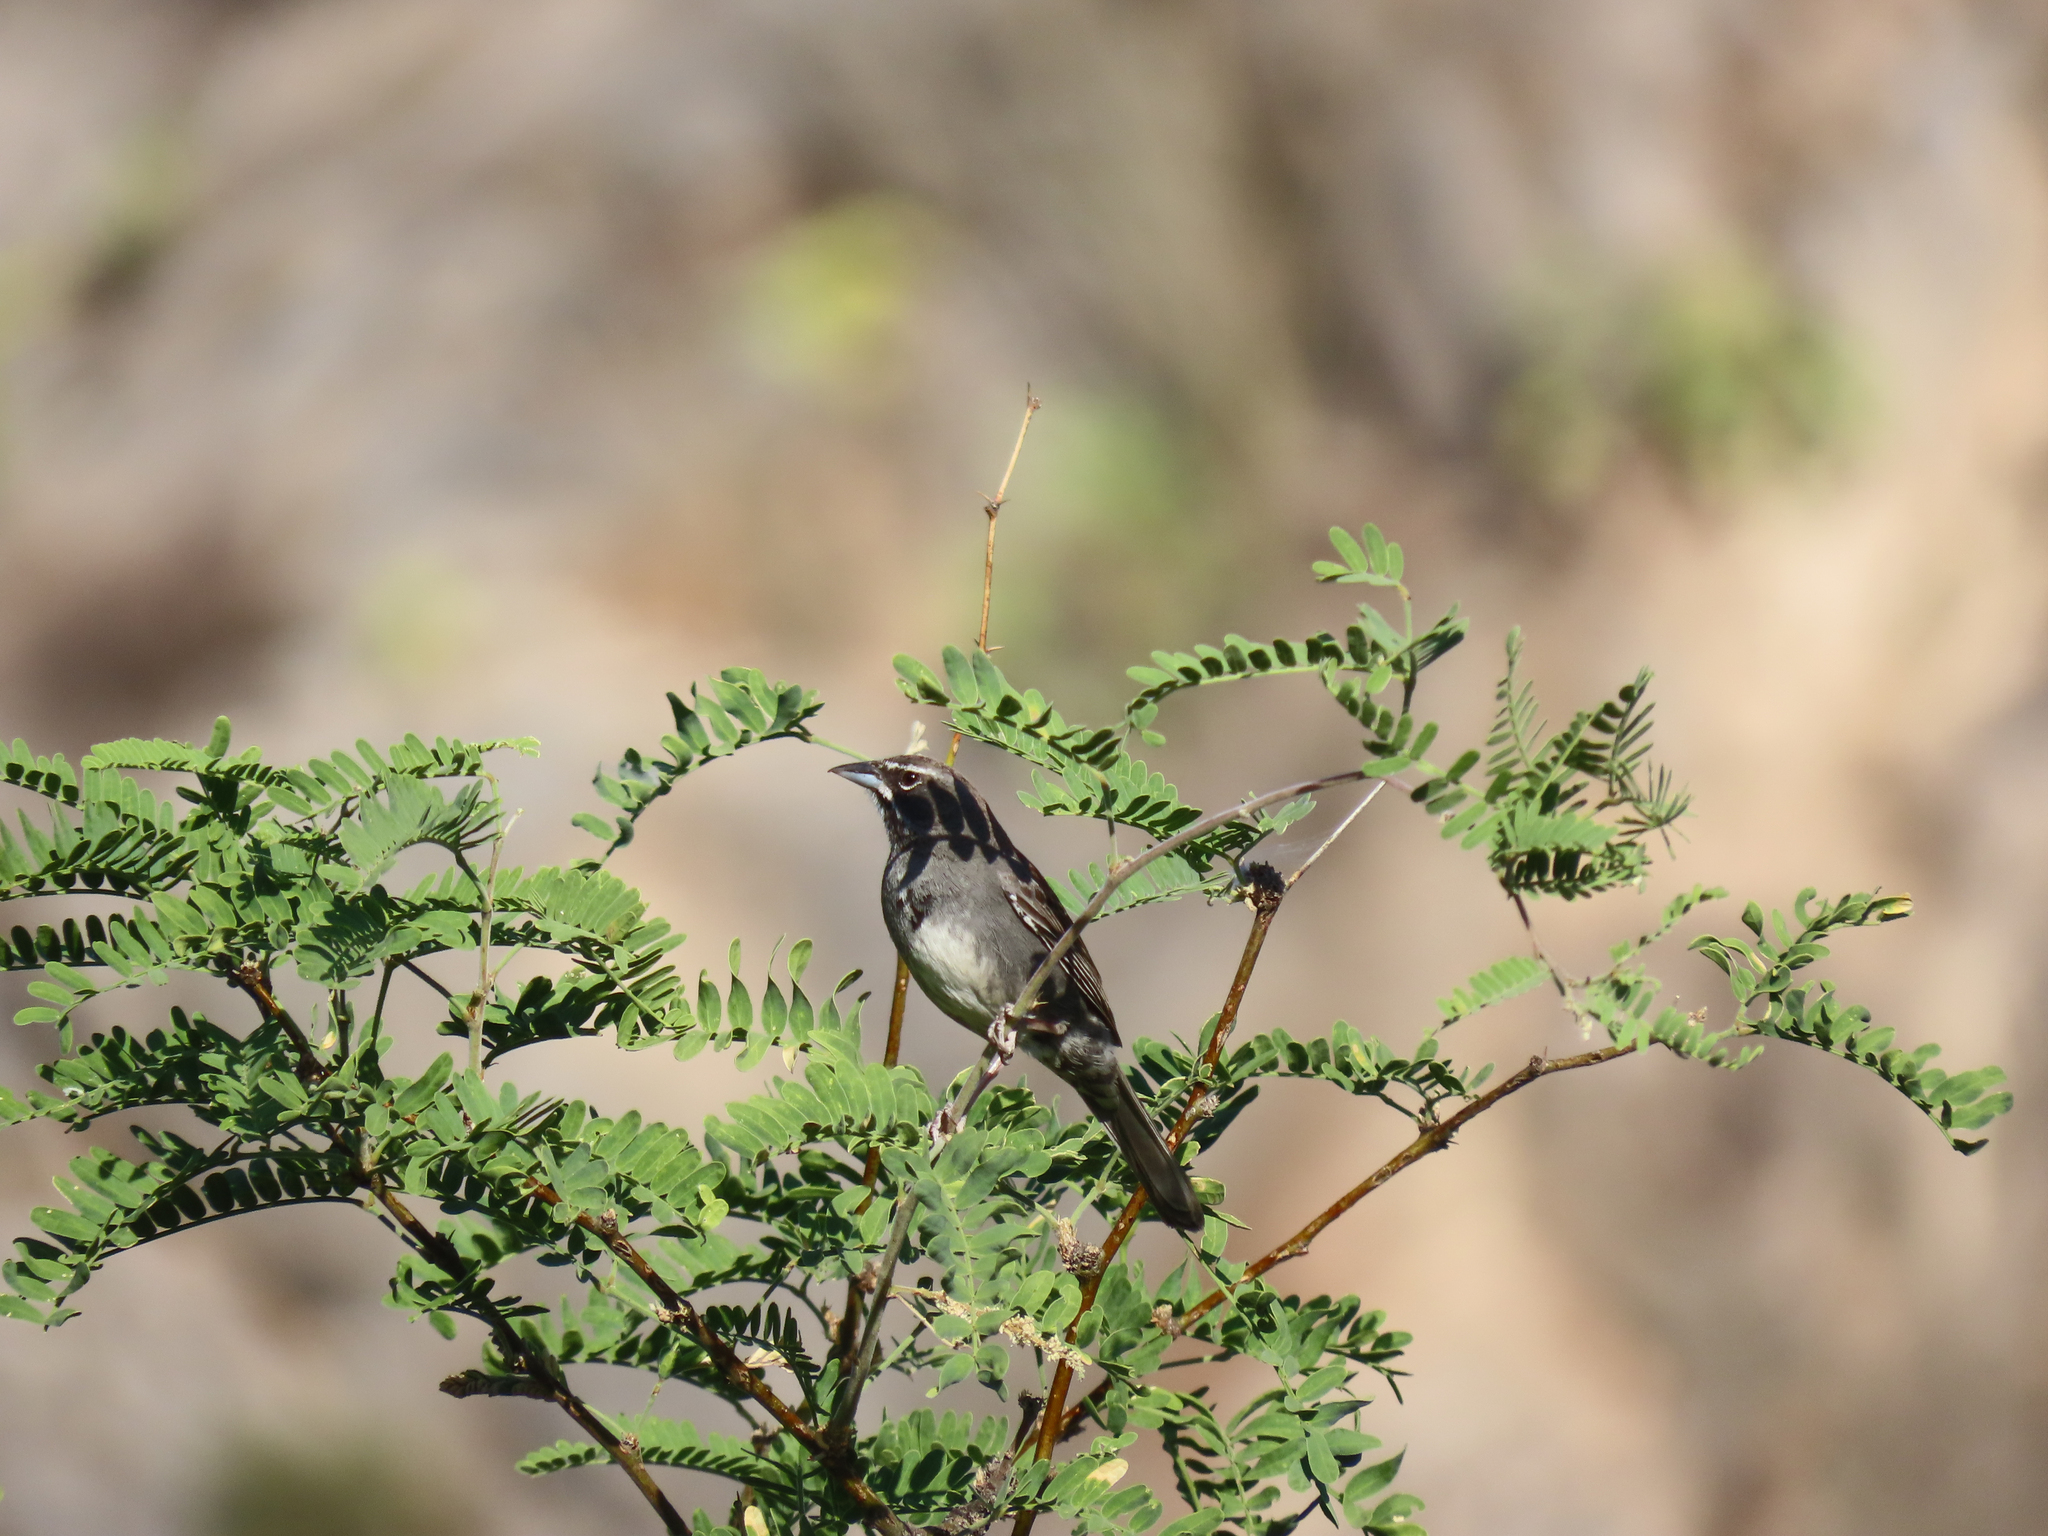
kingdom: Animalia
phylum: Chordata
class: Aves
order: Passeriformes
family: Passerellidae
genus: Amphispizopsis
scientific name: Amphispizopsis quinquestriata
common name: Five-striped sparrow
